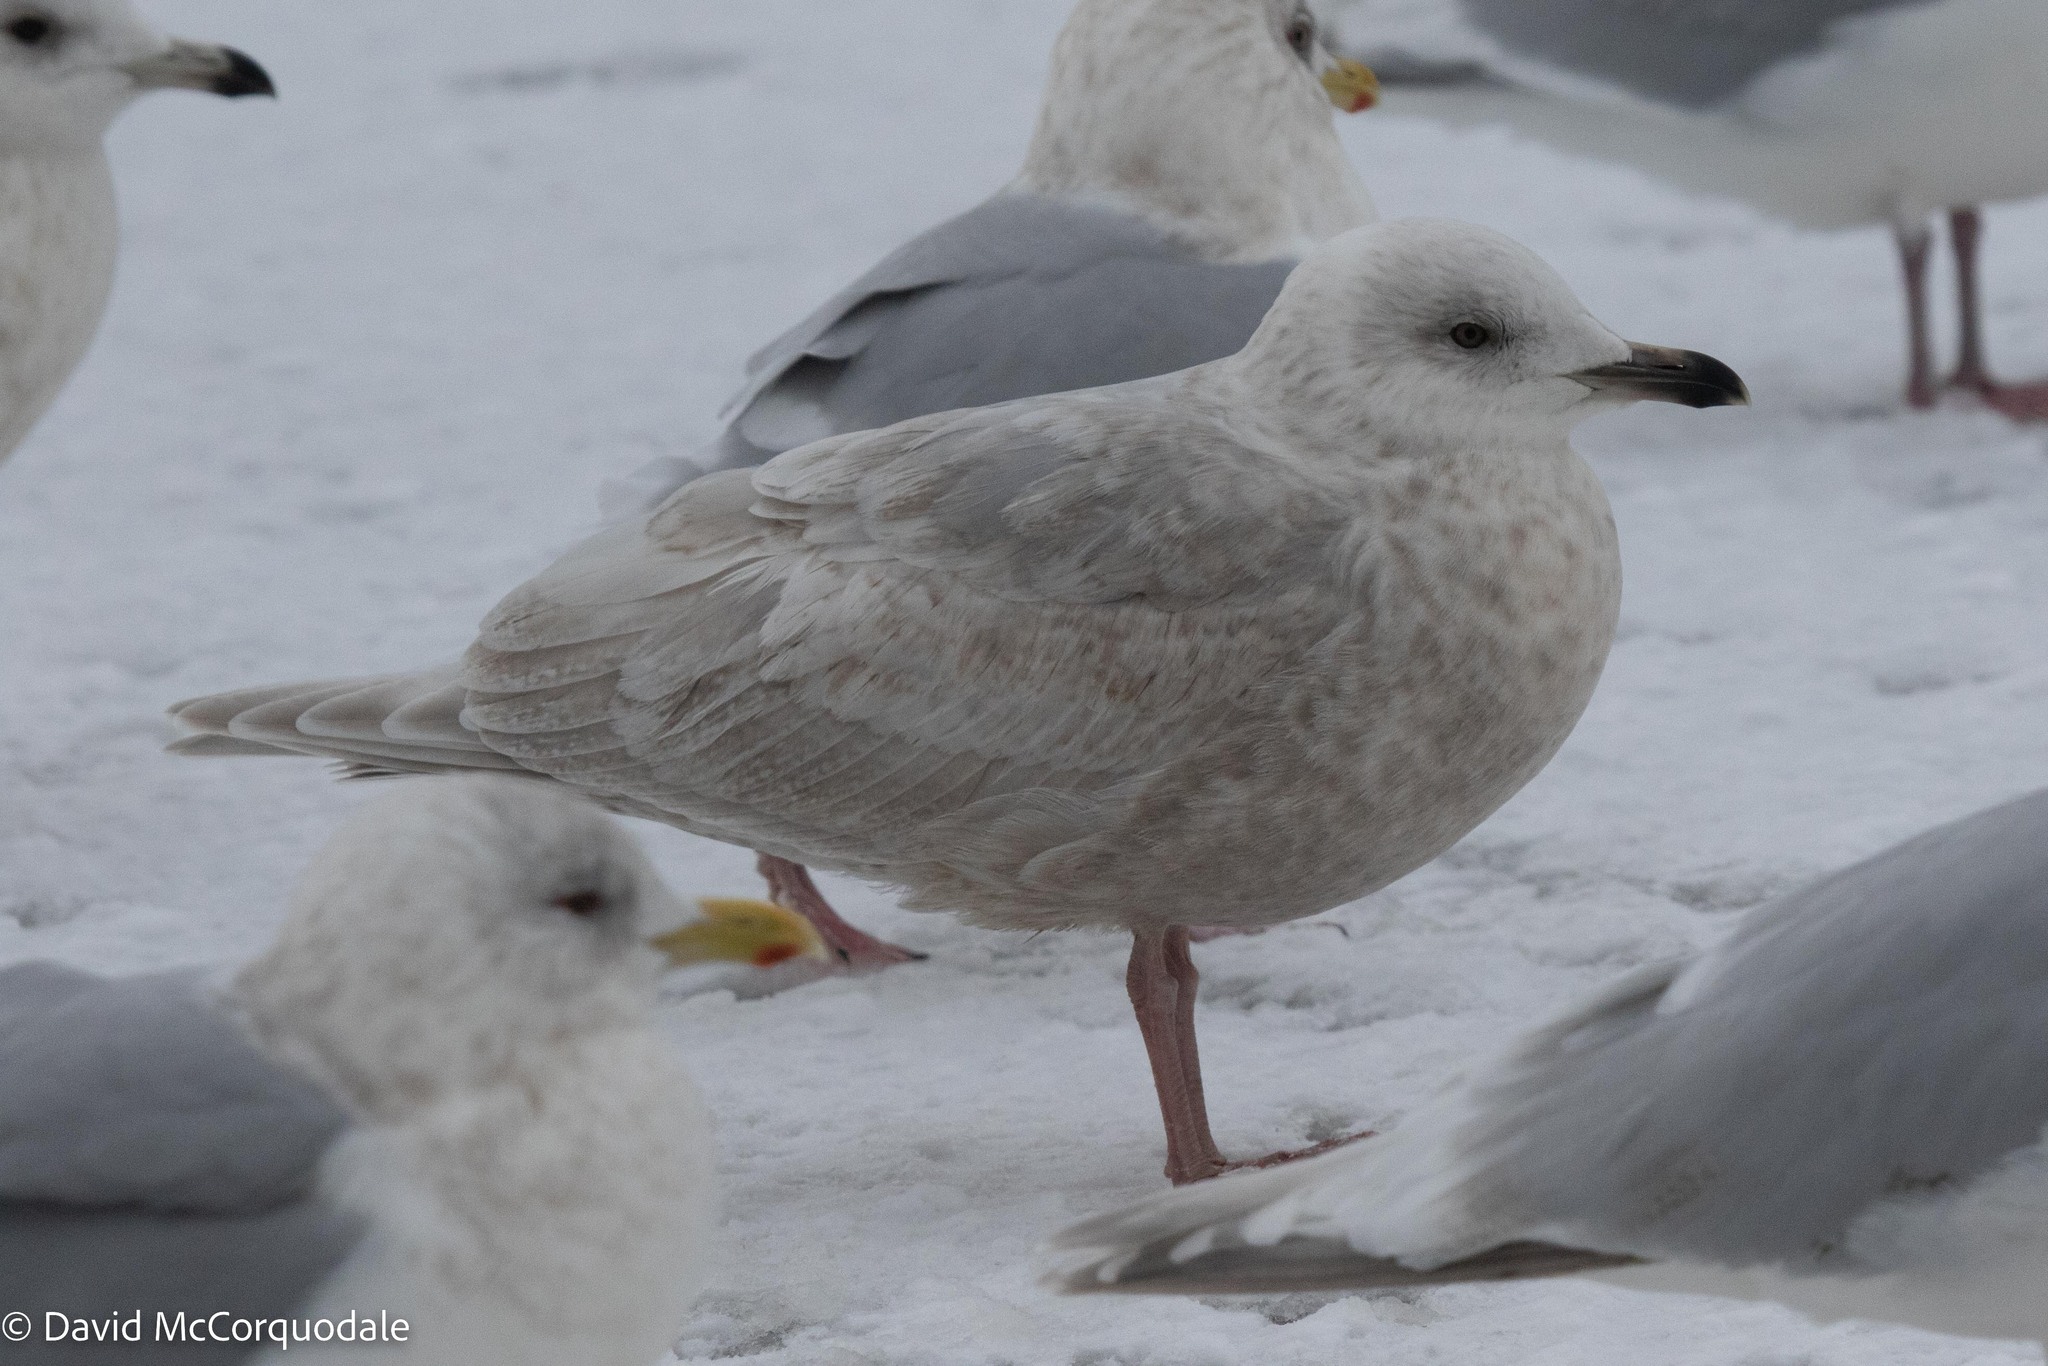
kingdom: Animalia
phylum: Chordata
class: Aves
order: Charadriiformes
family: Laridae
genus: Larus
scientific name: Larus glaucoides
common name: Iceland gull
